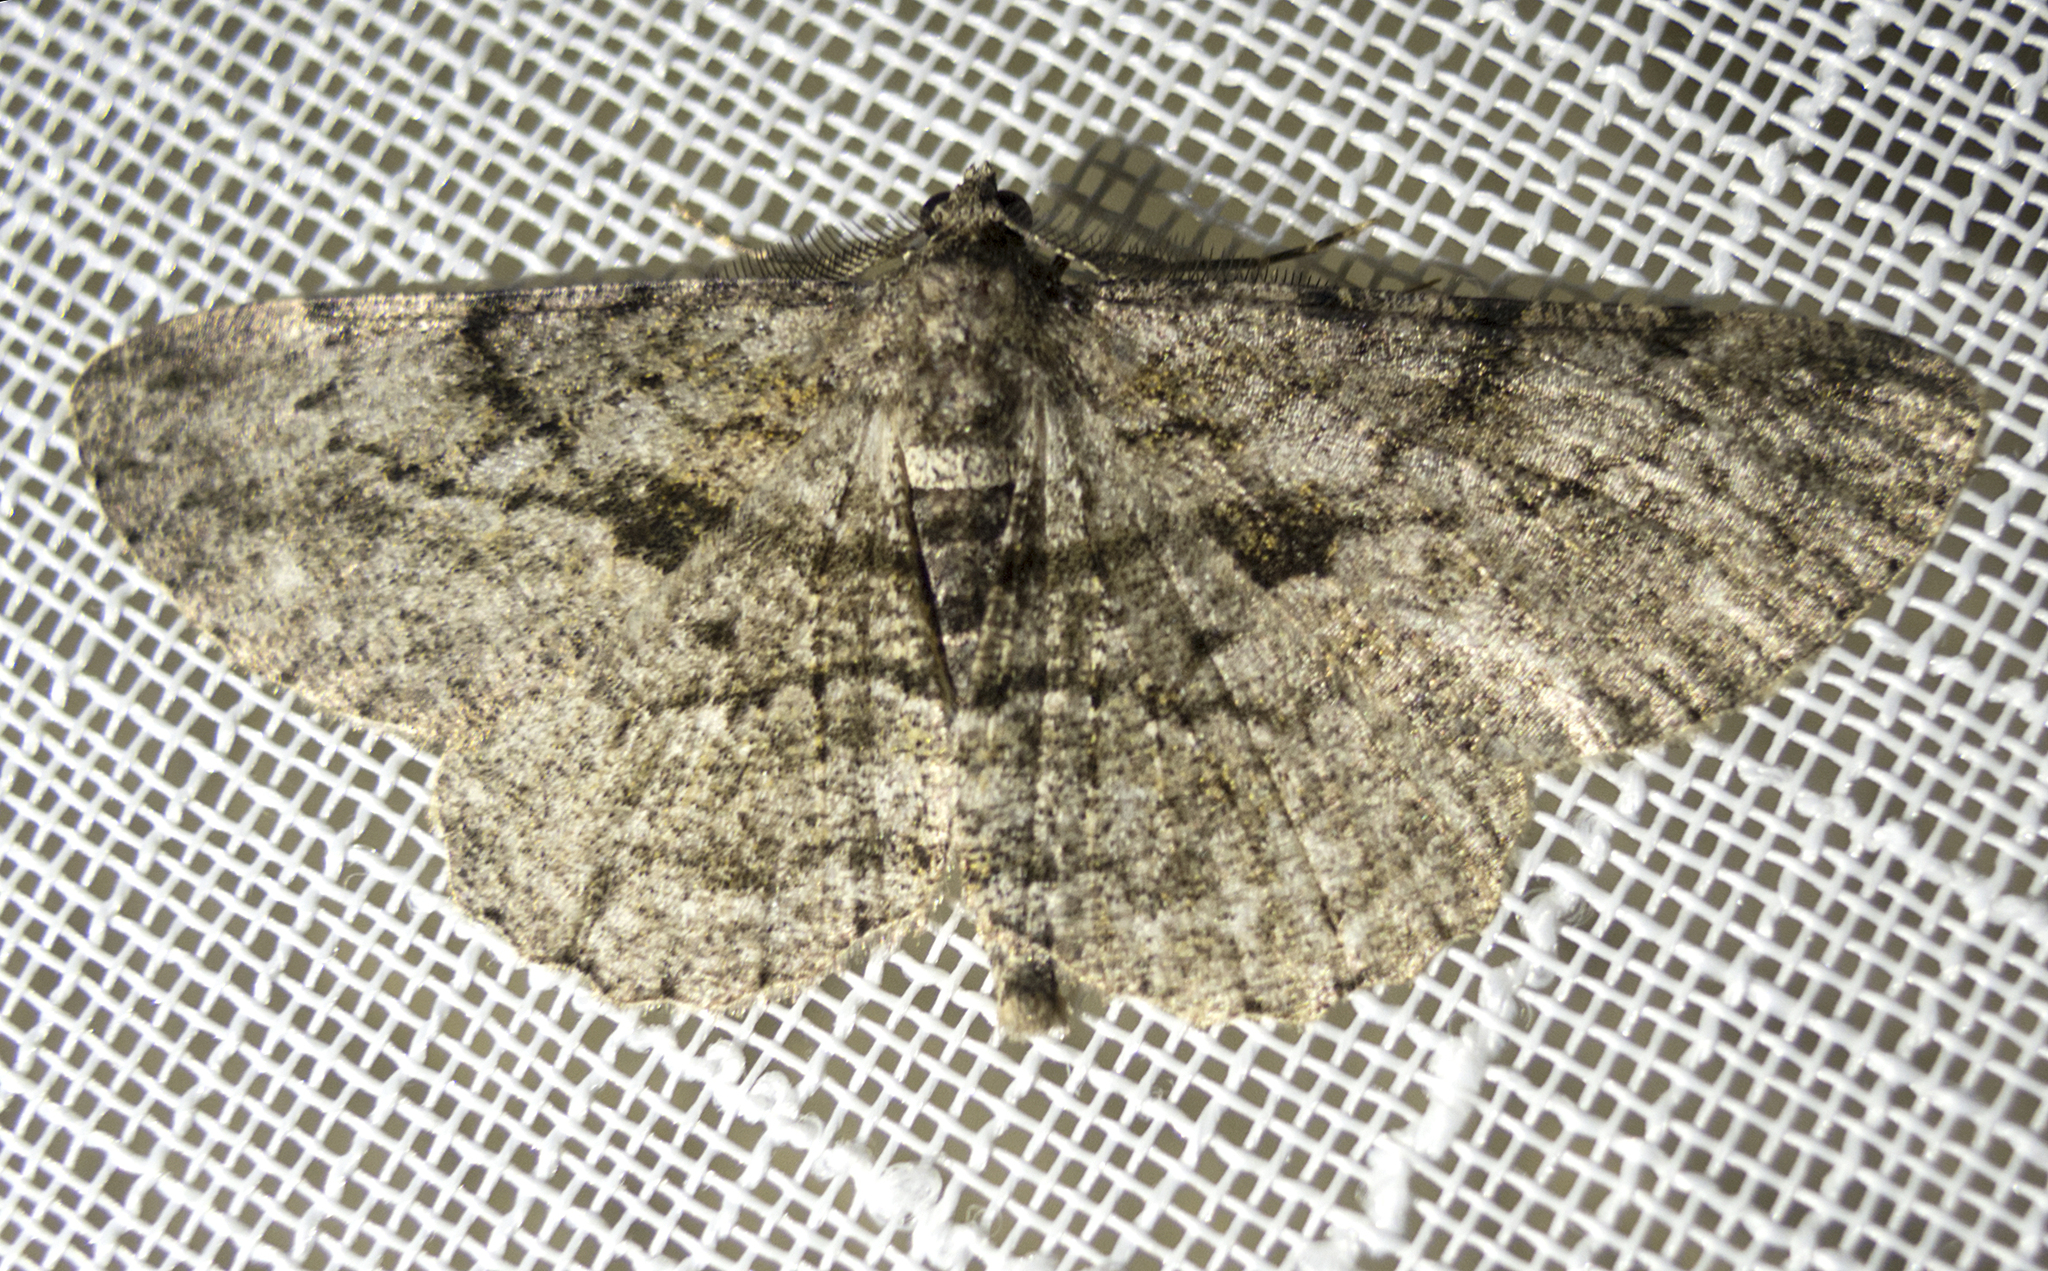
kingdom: Animalia
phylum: Arthropoda
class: Insecta
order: Lepidoptera
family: Geometridae
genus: Peribatodes
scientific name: Peribatodes rhomboidaria
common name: Willow beauty
